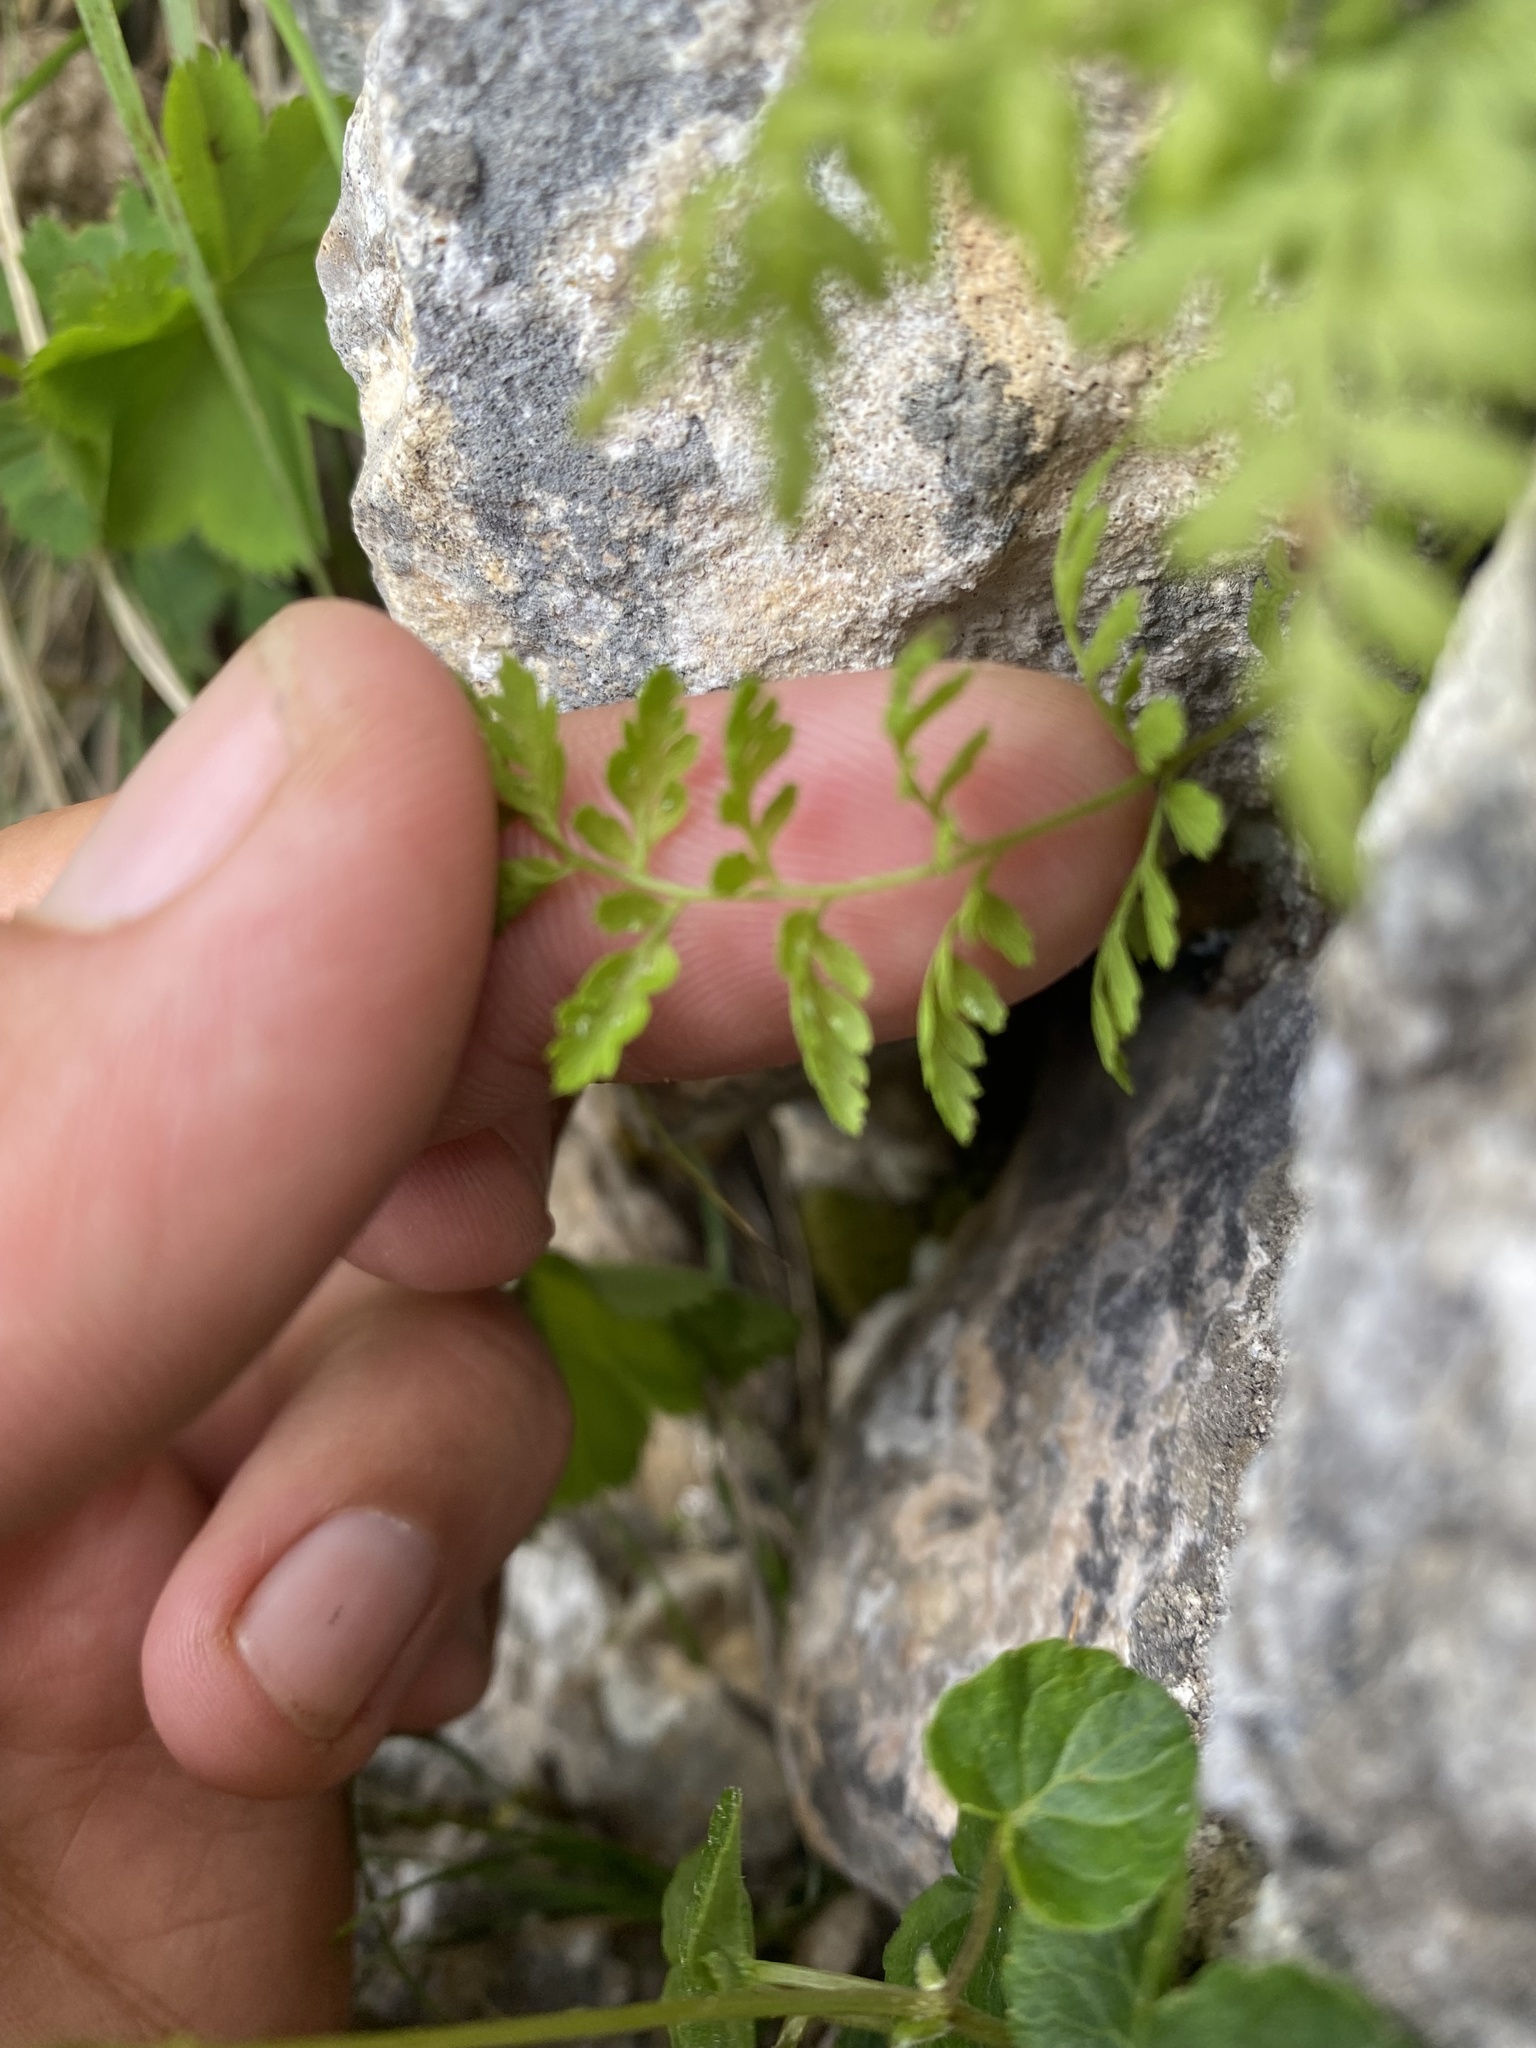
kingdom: Plantae
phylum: Tracheophyta
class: Polypodiopsida
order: Polypodiales
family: Cystopteridaceae
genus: Cystopteris
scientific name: Cystopteris fragilis
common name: Brittle bladder fern
